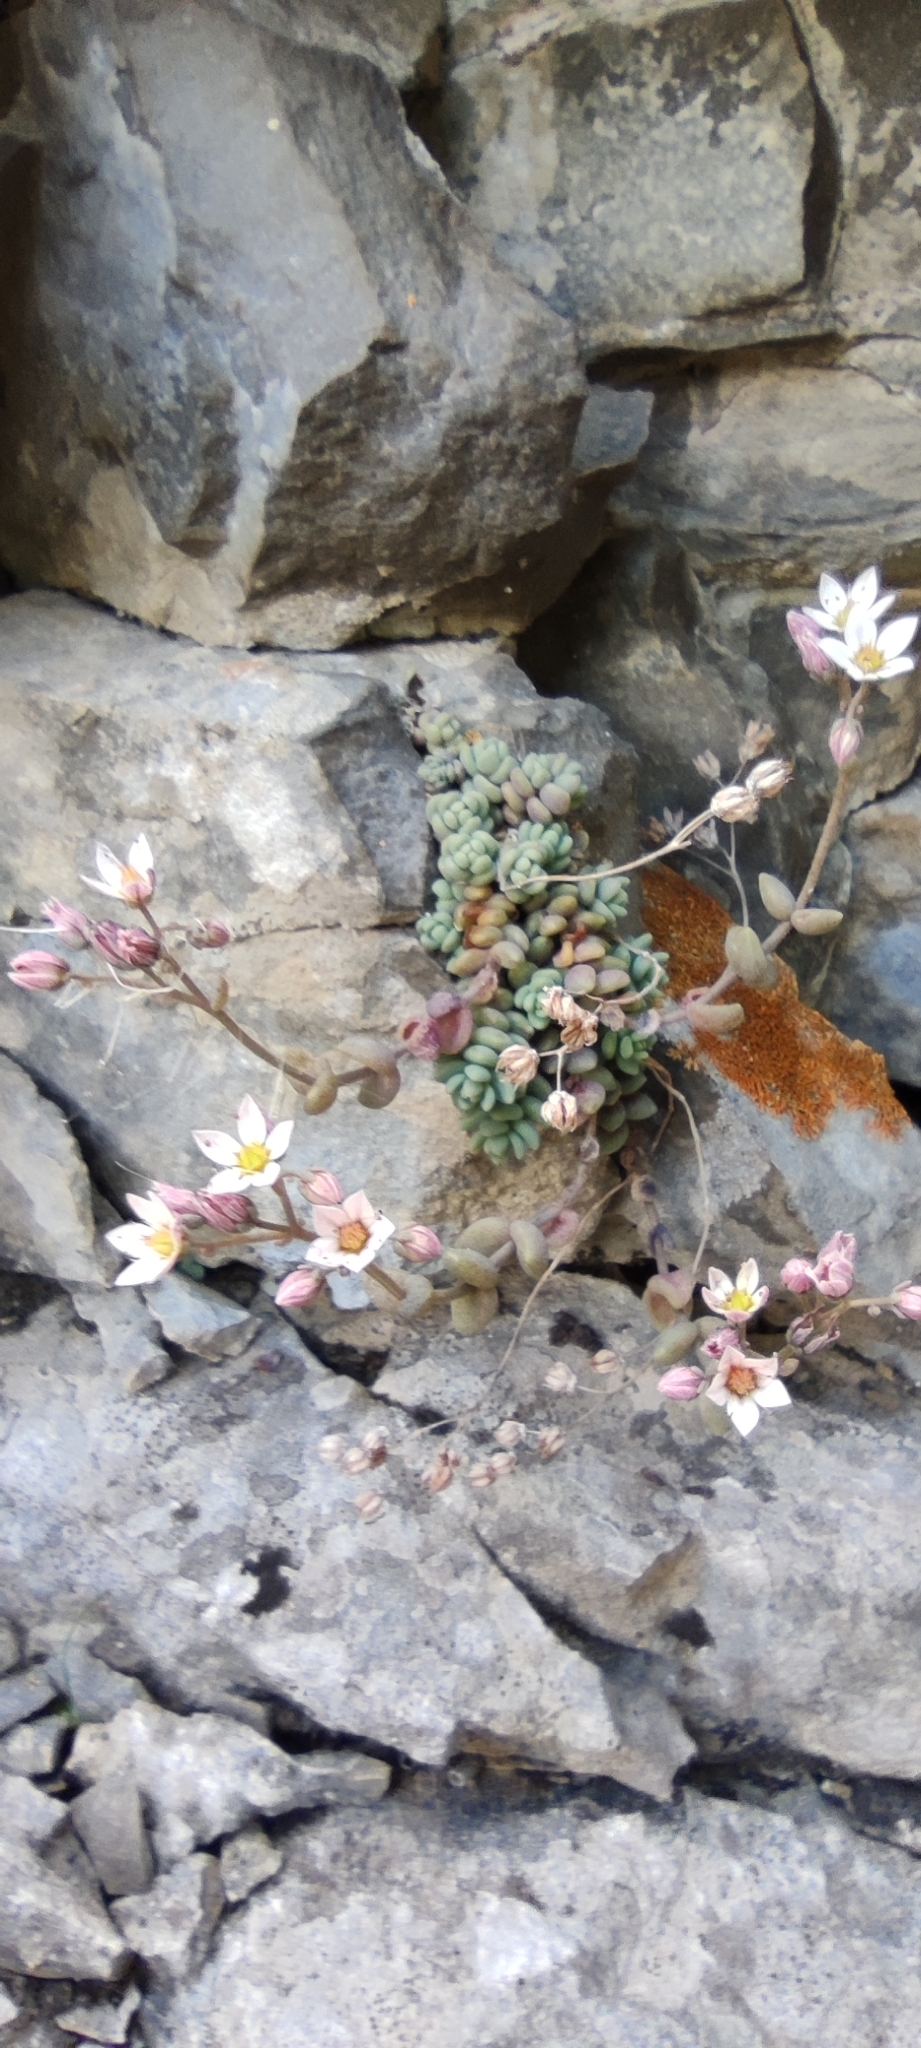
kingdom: Plantae
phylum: Tracheophyta
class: Magnoliopsida
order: Saxifragales
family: Crassulaceae
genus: Sedum
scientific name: Sedum dasyphyllum
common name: Thick-leaf stonecrop
